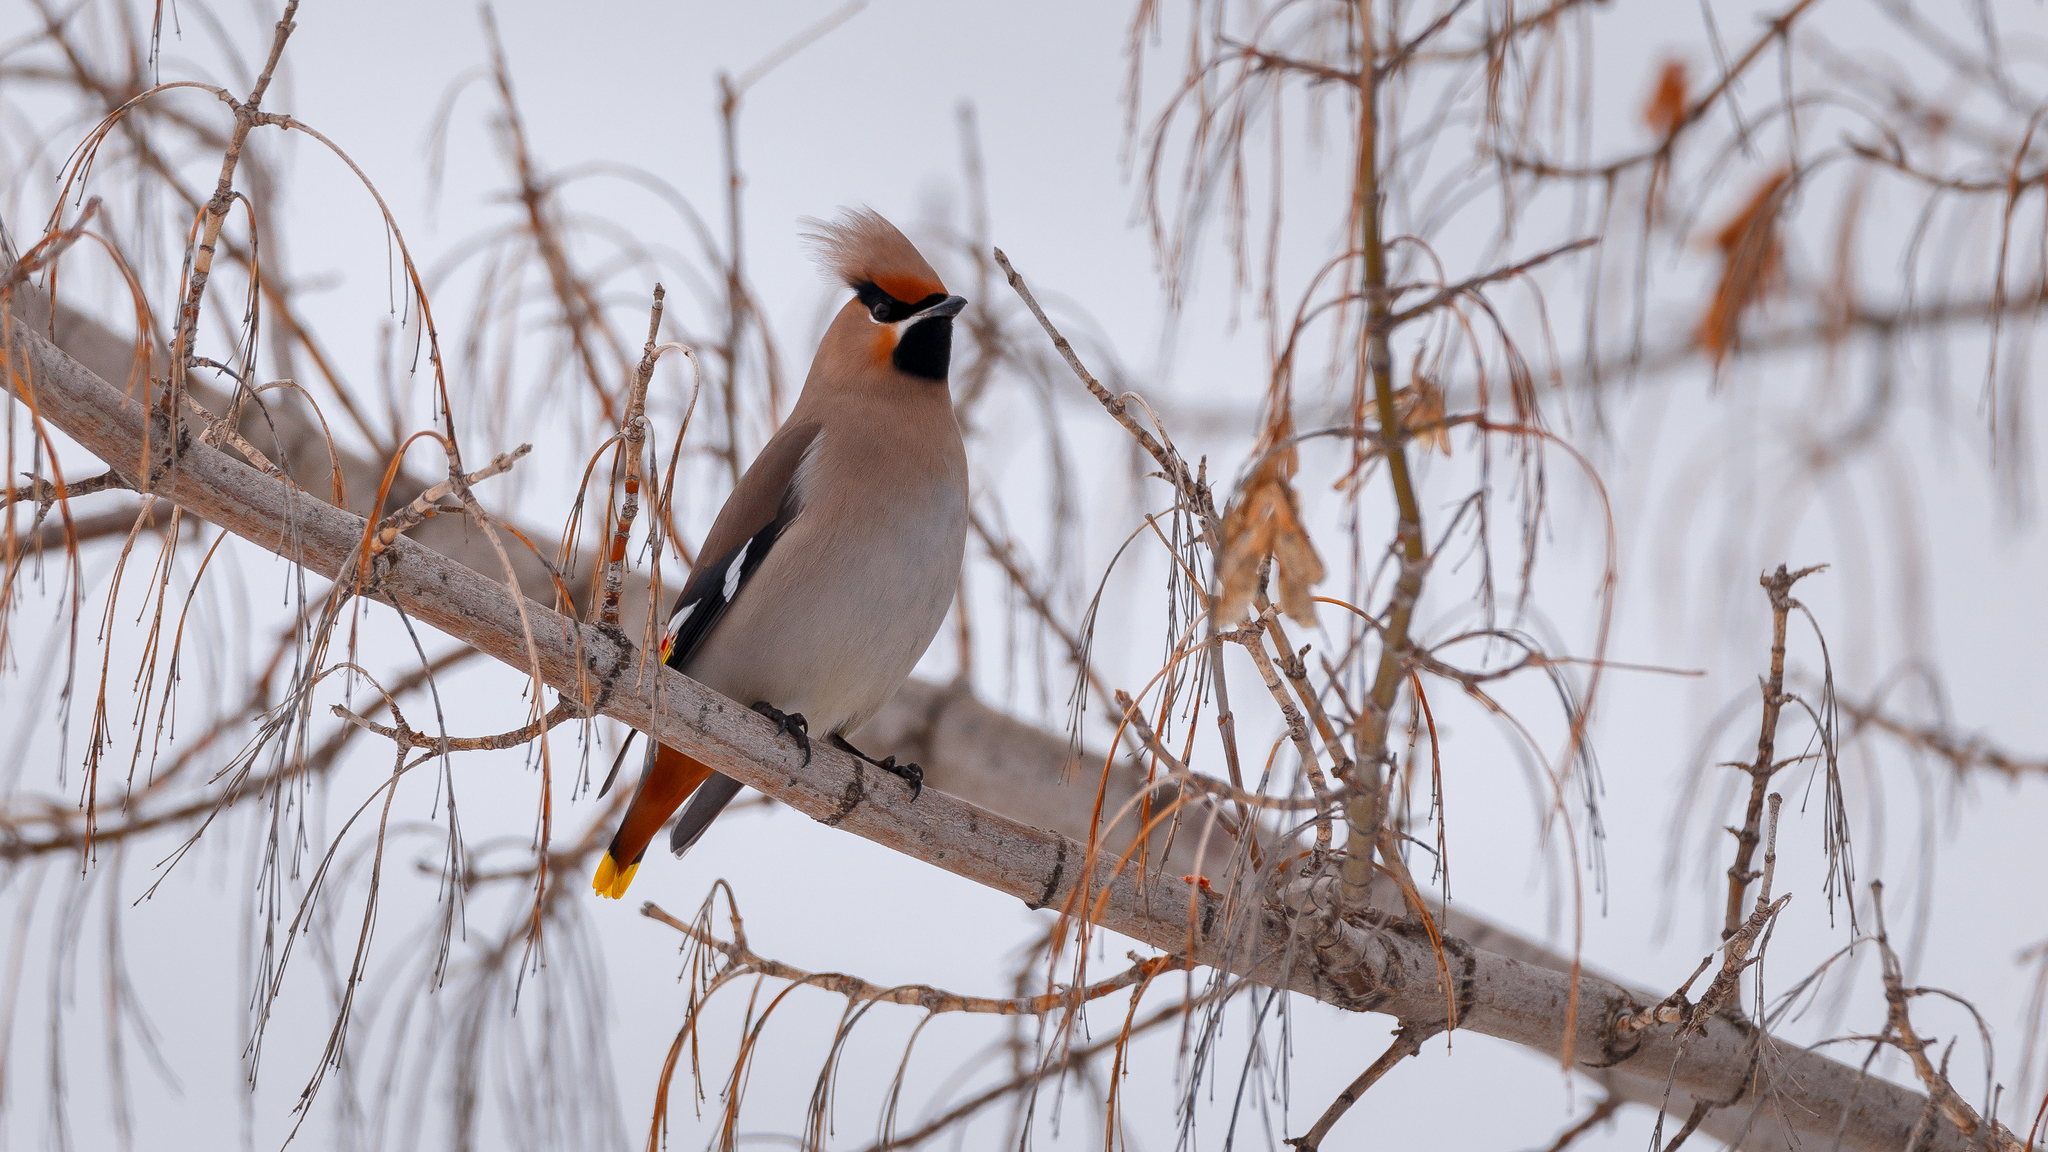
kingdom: Animalia
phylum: Chordata
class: Aves
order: Passeriformes
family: Bombycillidae
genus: Bombycilla
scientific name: Bombycilla garrulus
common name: Bohemian waxwing
